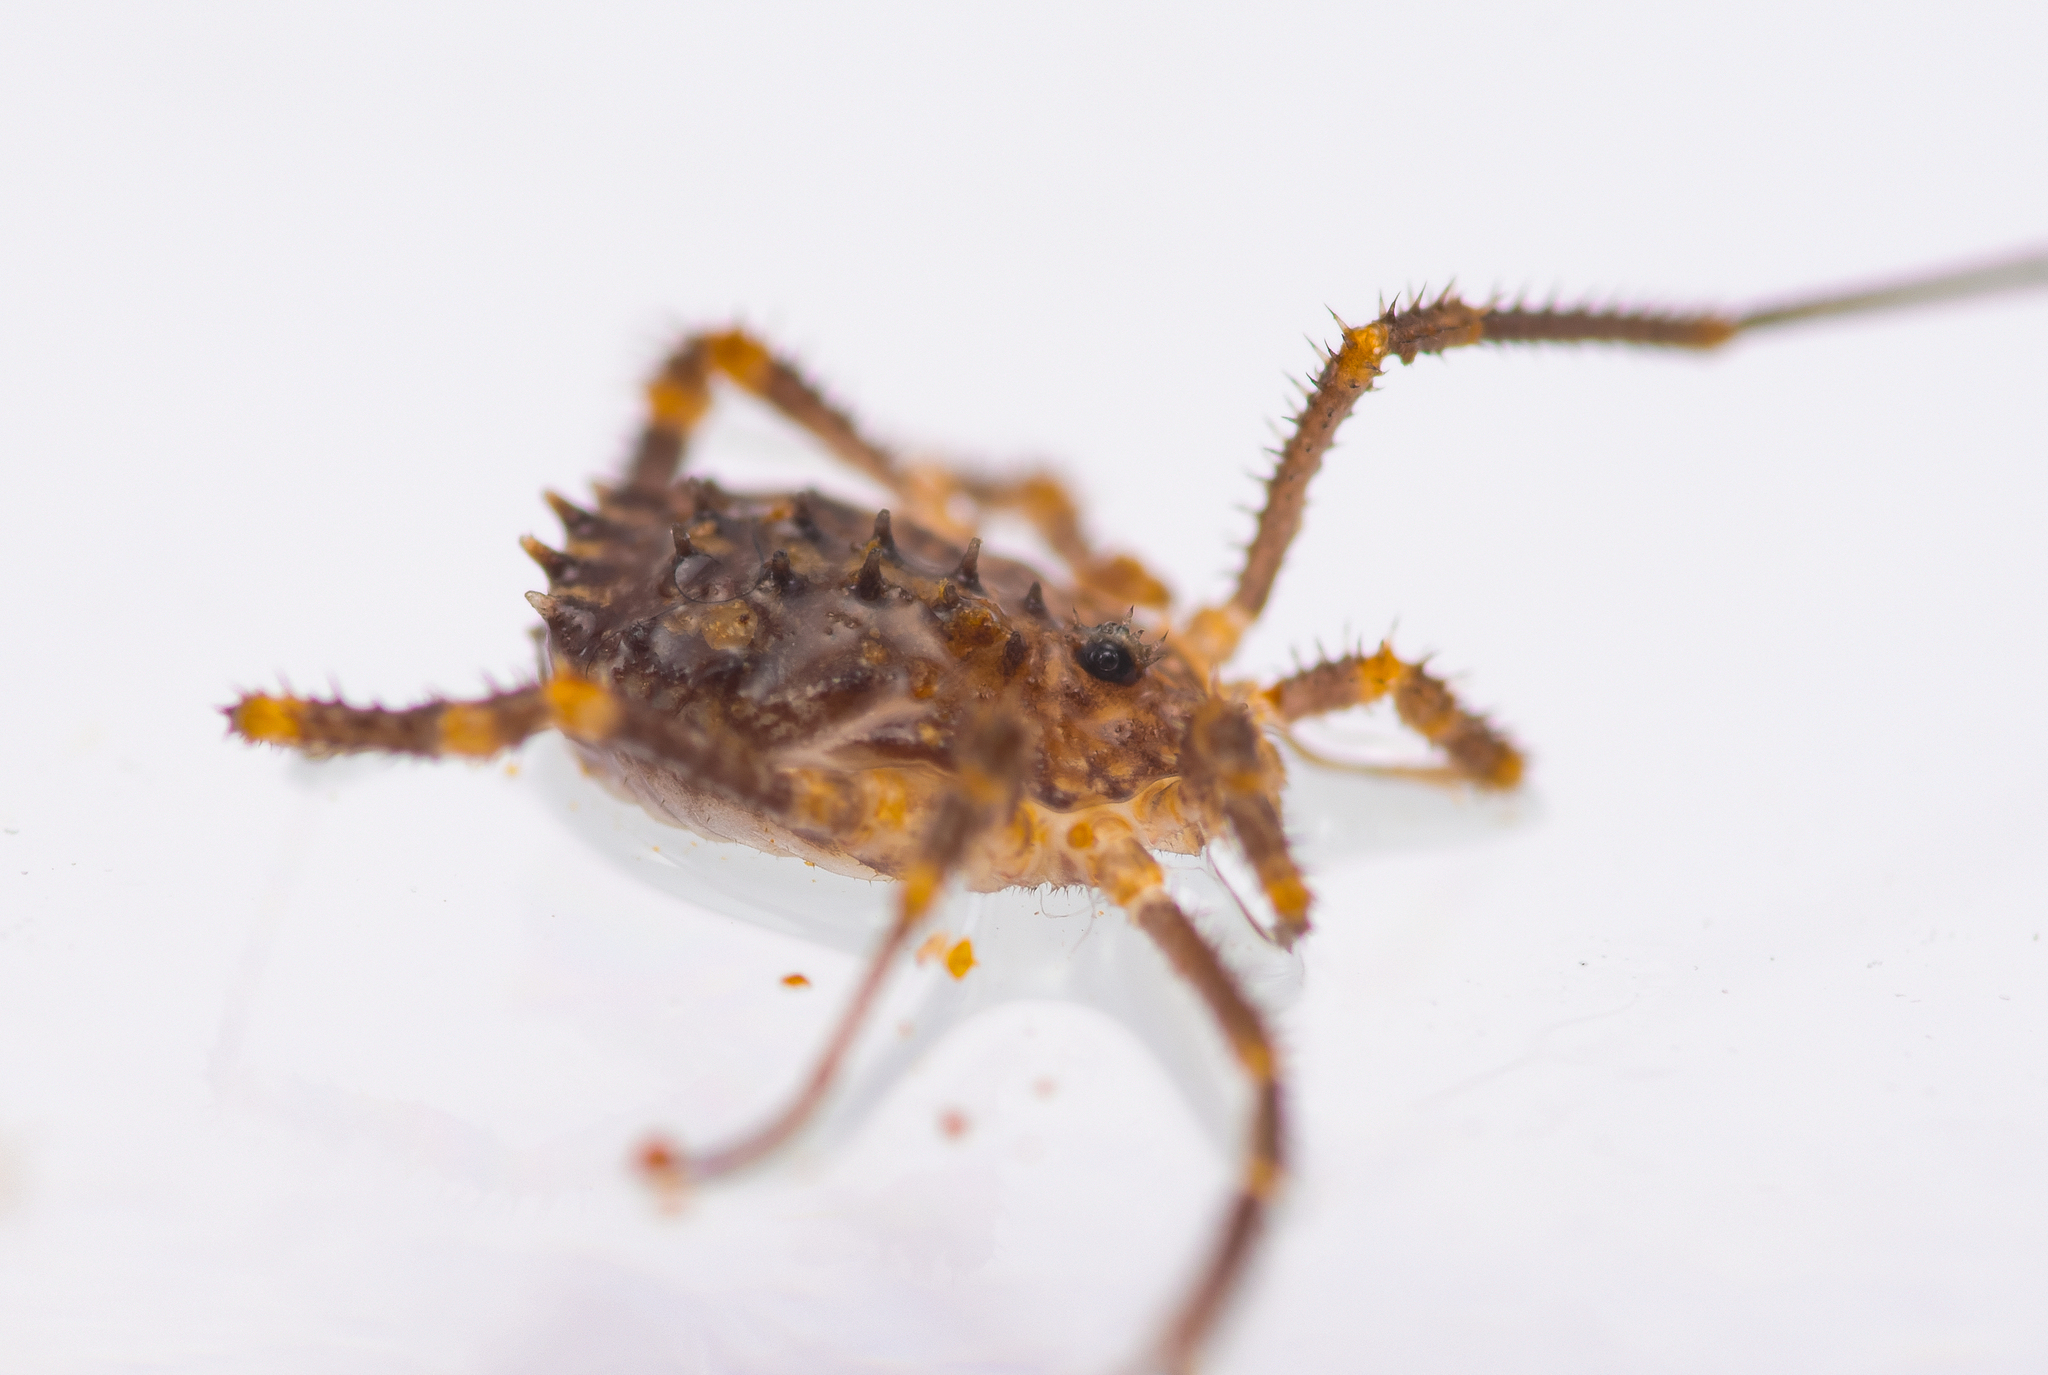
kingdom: Animalia
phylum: Arthropoda
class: Arachnida
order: Opiliones
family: Sclerosomatidae
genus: Homalenotus
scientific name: Homalenotus buchneri
